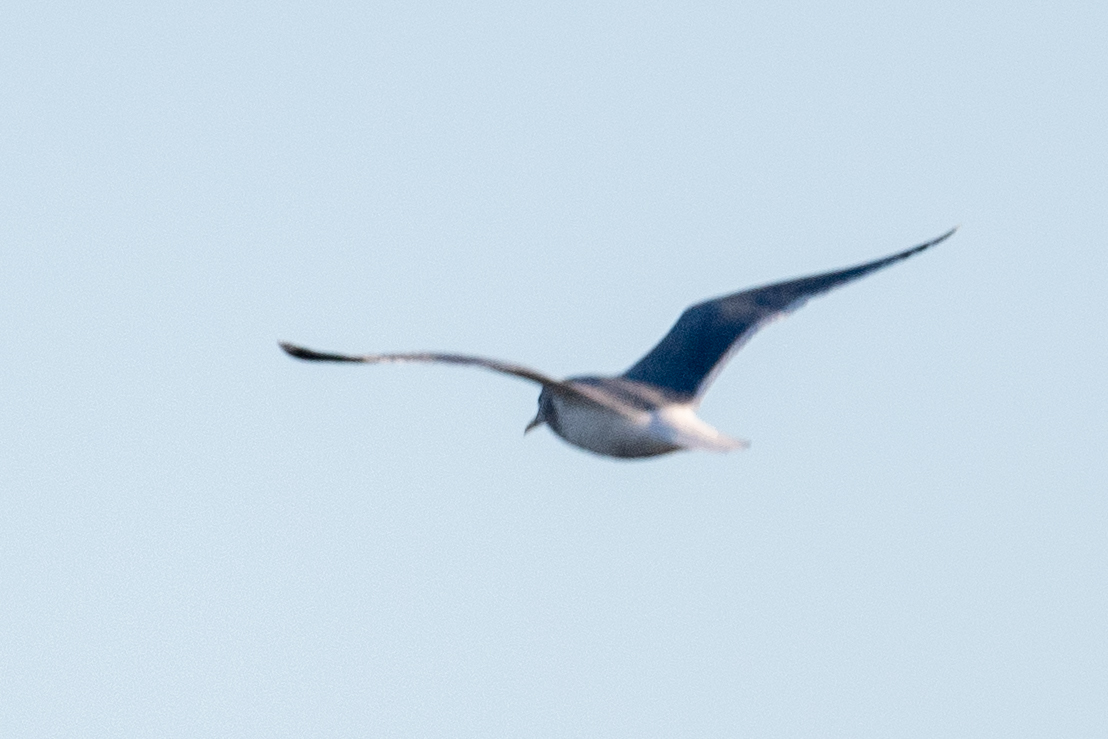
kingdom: Animalia
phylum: Chordata
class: Aves
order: Charadriiformes
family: Laridae
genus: Larus
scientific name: Larus
